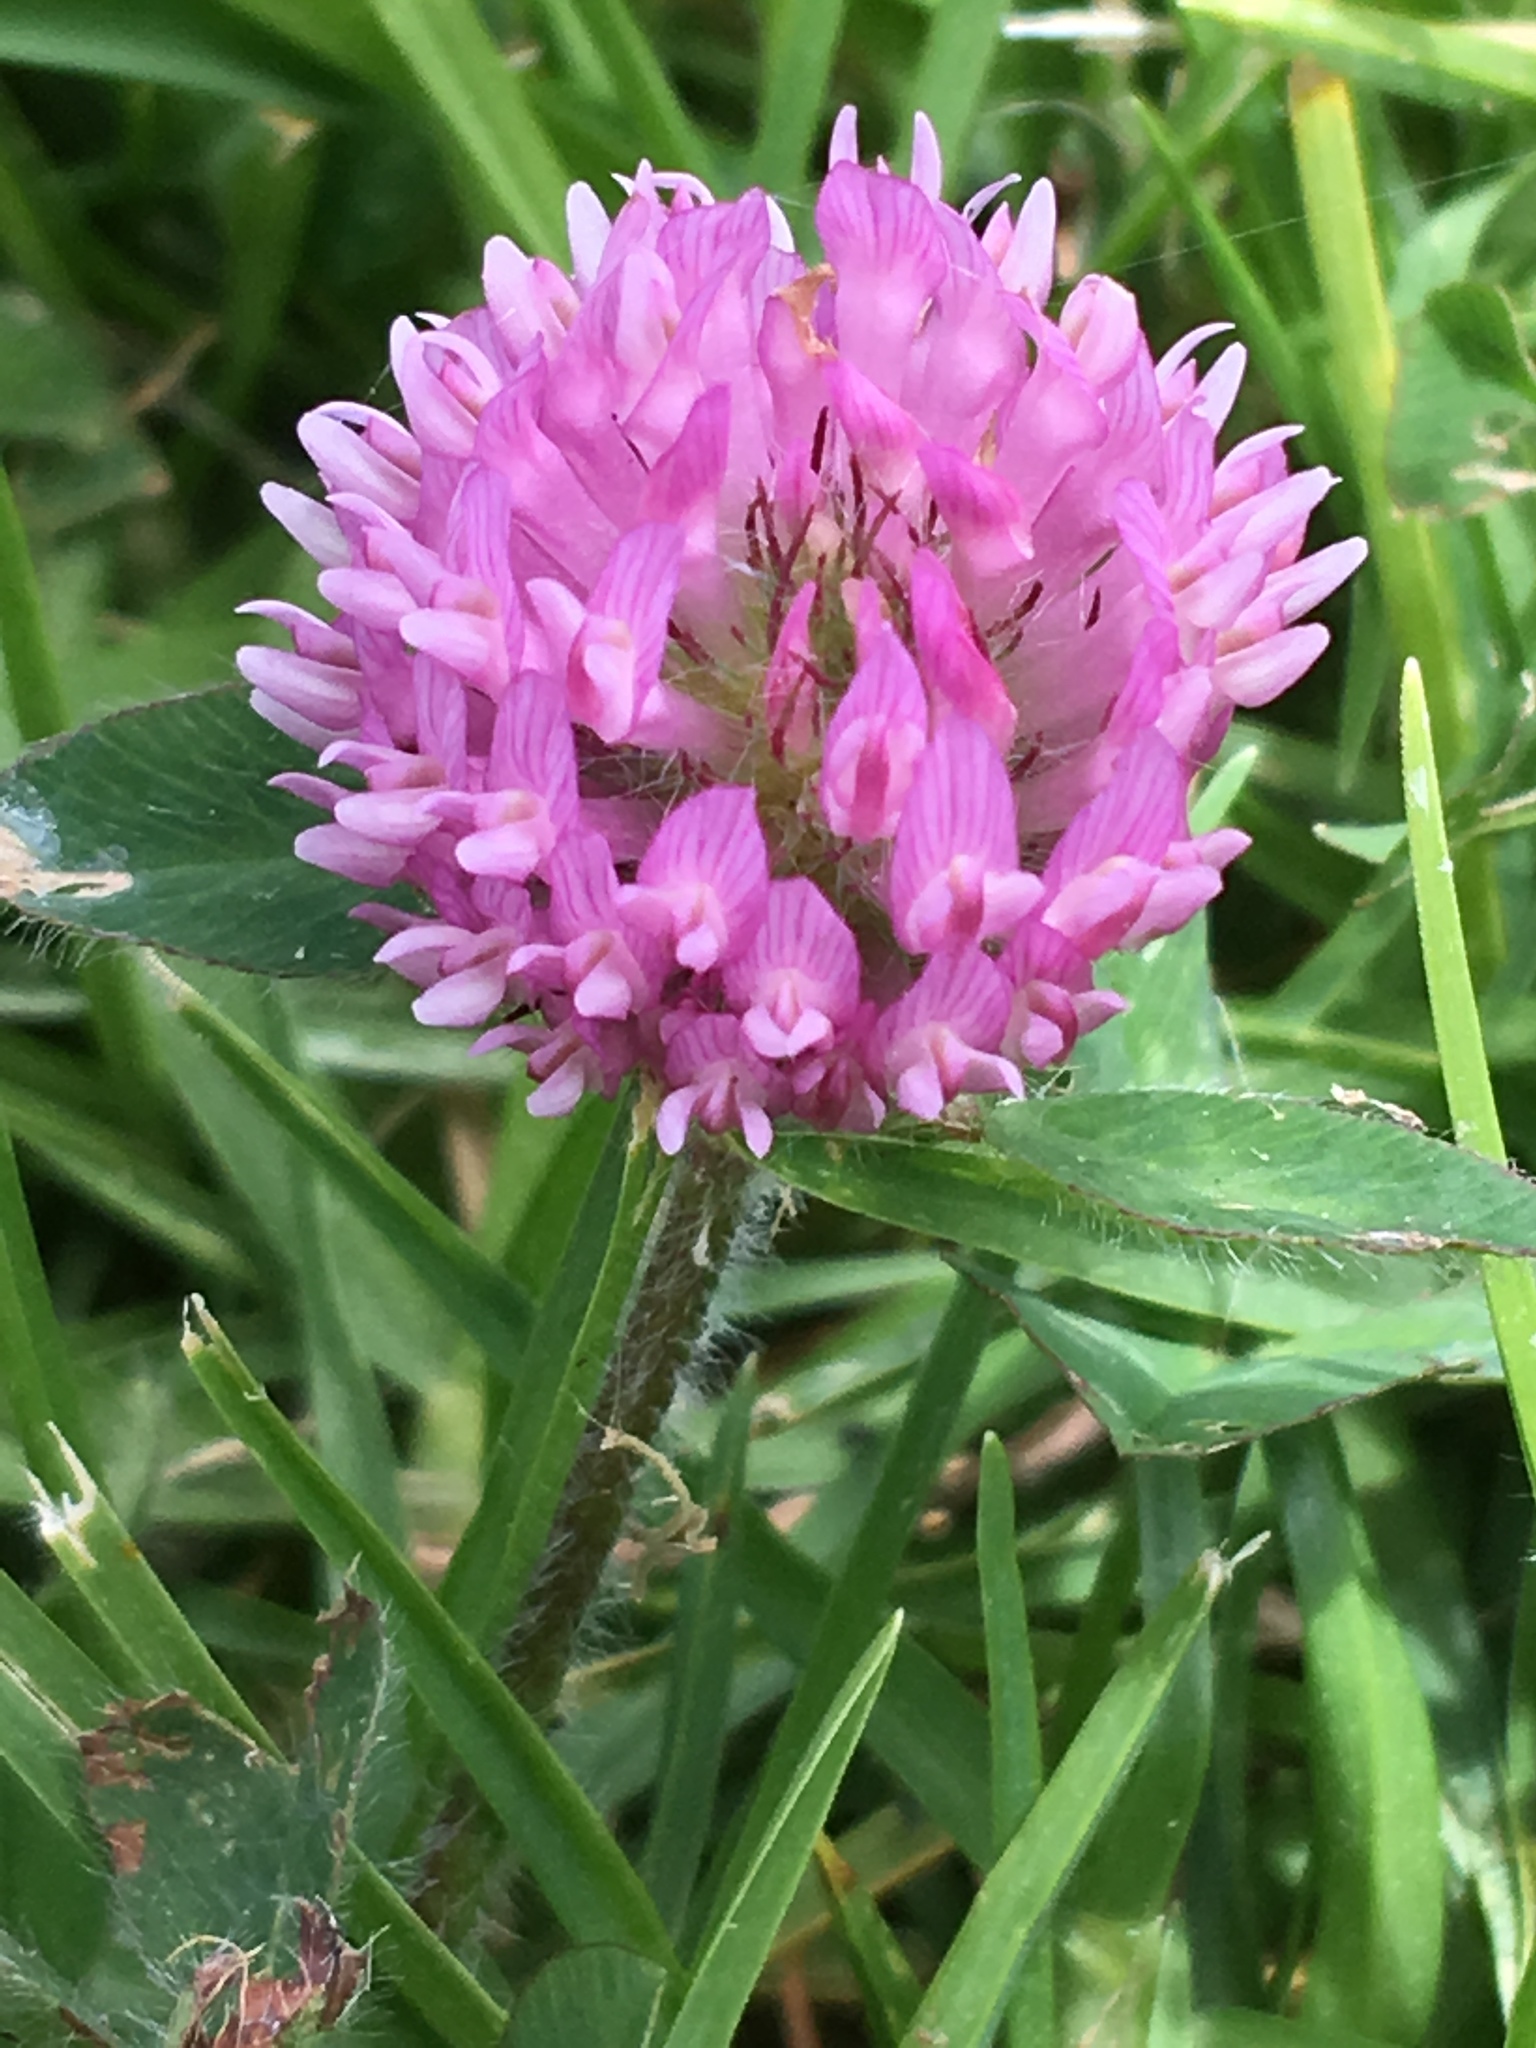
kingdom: Plantae
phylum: Tracheophyta
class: Magnoliopsida
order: Fabales
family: Fabaceae
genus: Trifolium
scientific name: Trifolium pratense
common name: Red clover
